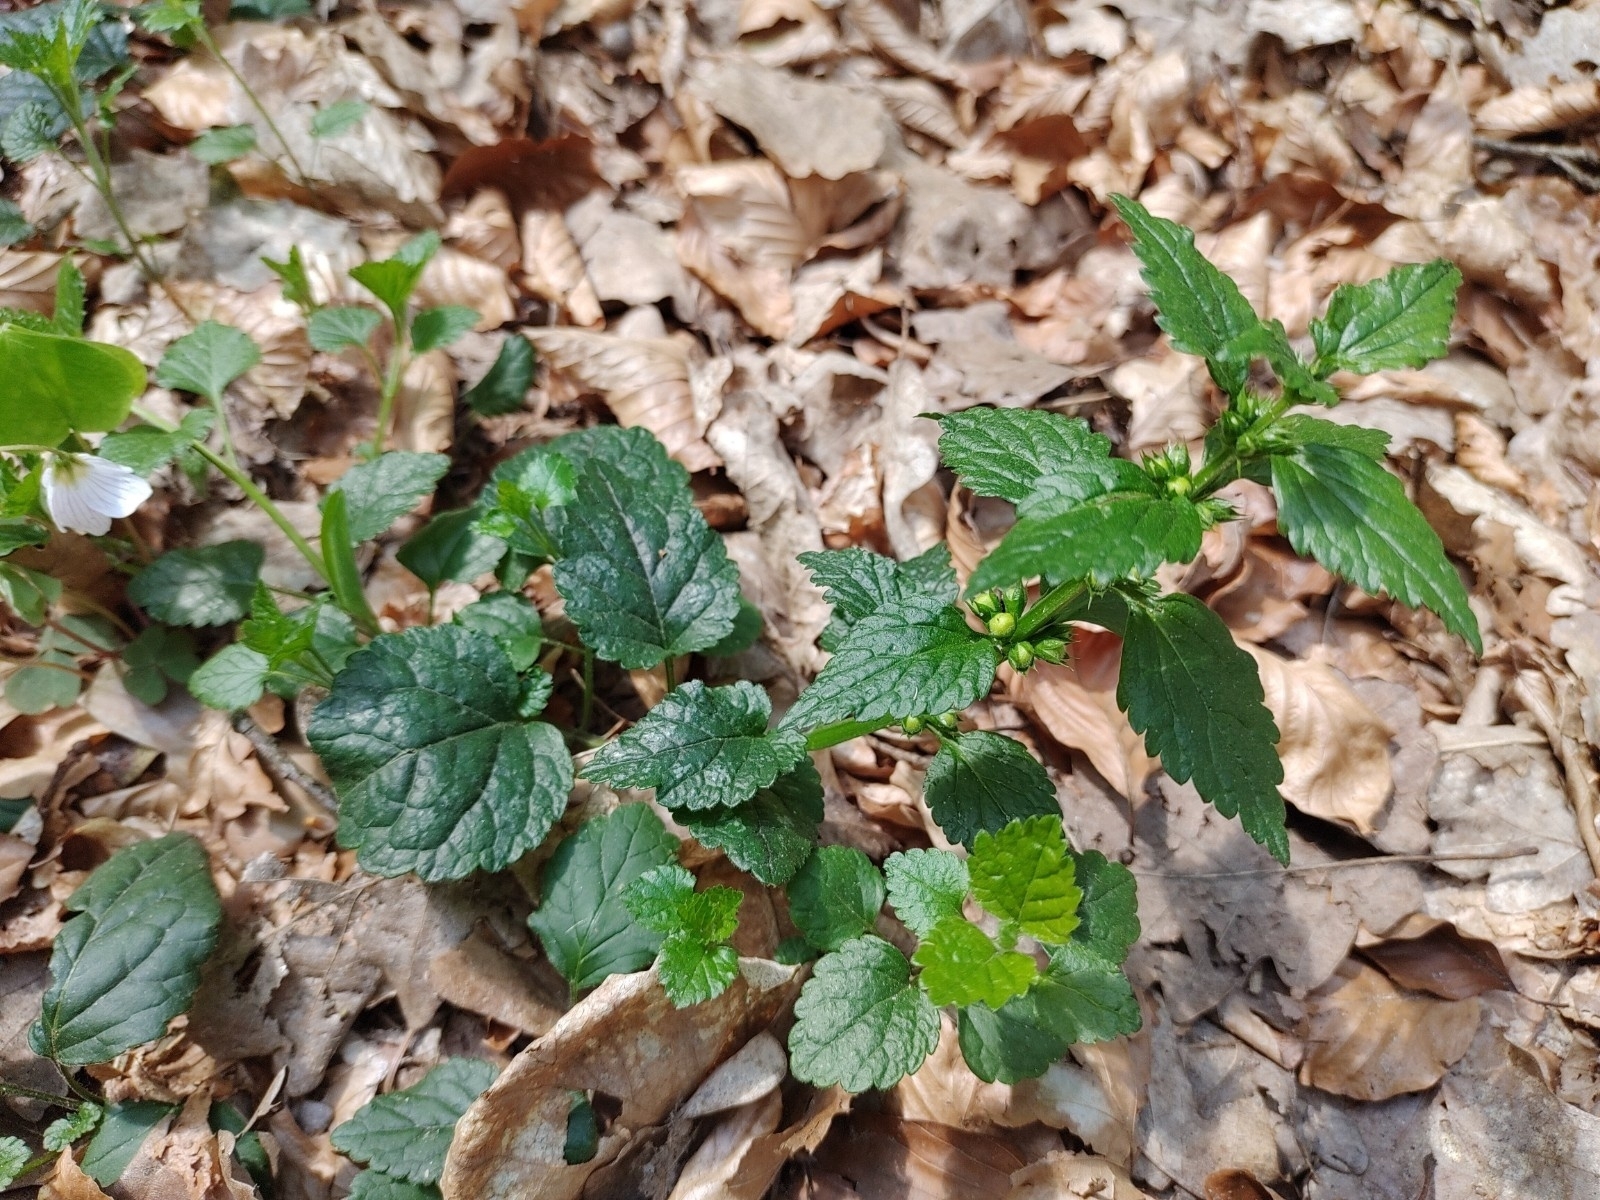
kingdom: Plantae
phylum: Tracheophyta
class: Magnoliopsida
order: Lamiales
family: Lamiaceae
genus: Lamium
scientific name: Lamium galeobdolon
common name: Yellow archangel
